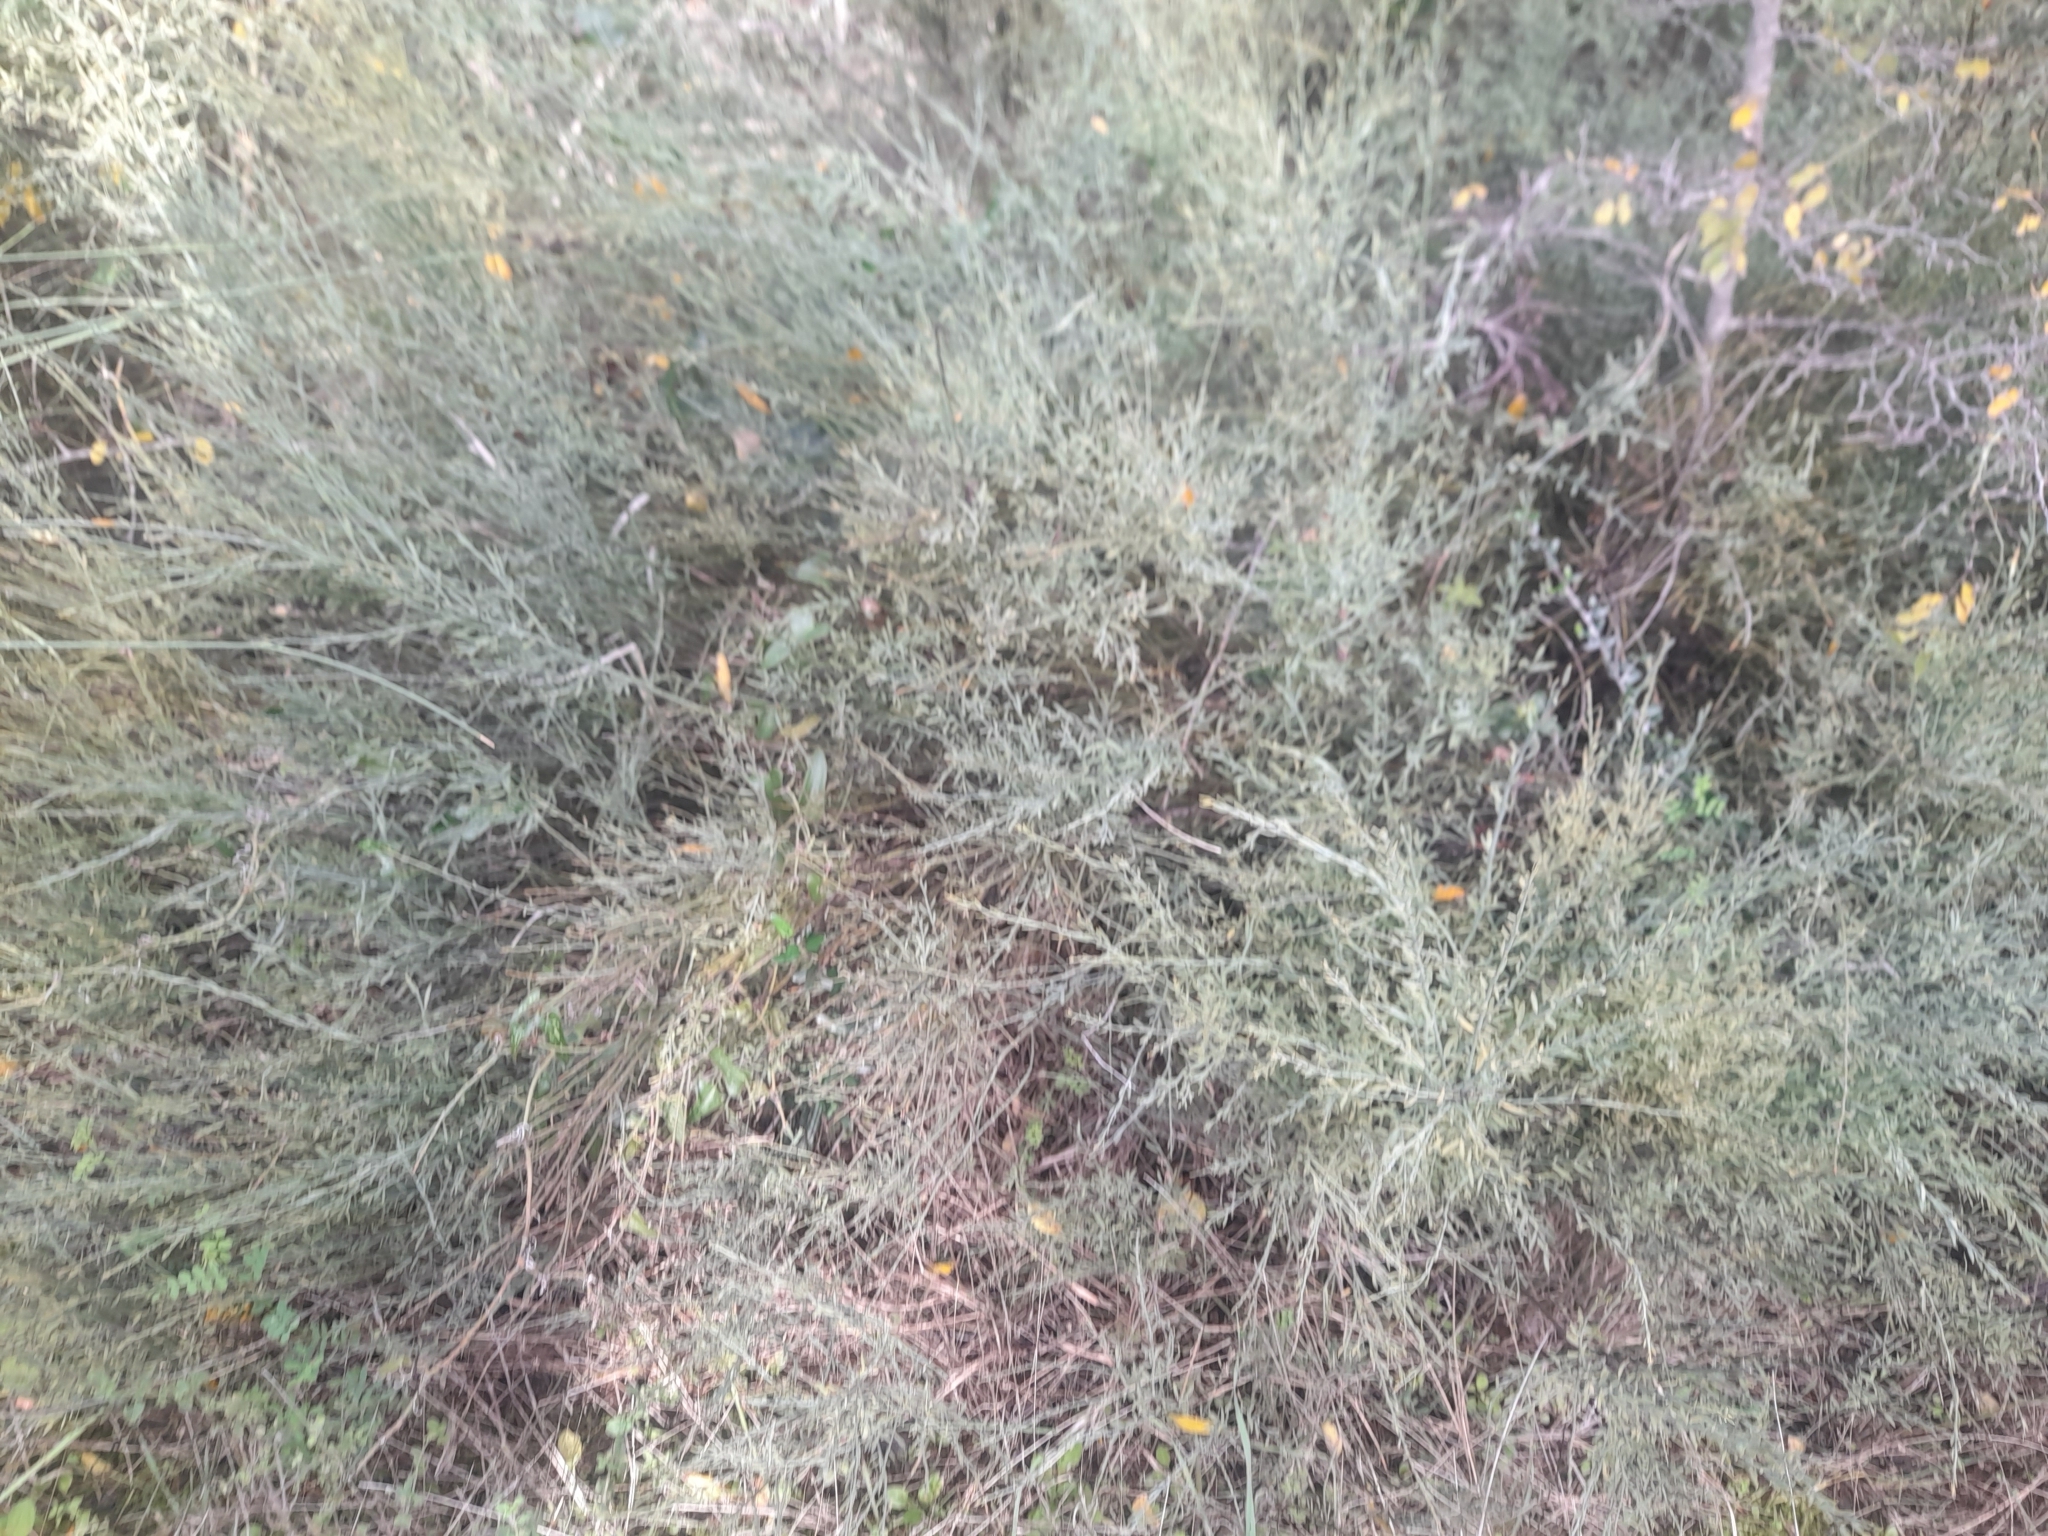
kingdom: Plantae
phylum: Tracheophyta
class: Magnoliopsida
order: Santalales
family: Santalaceae
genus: Osyris
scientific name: Osyris alba
